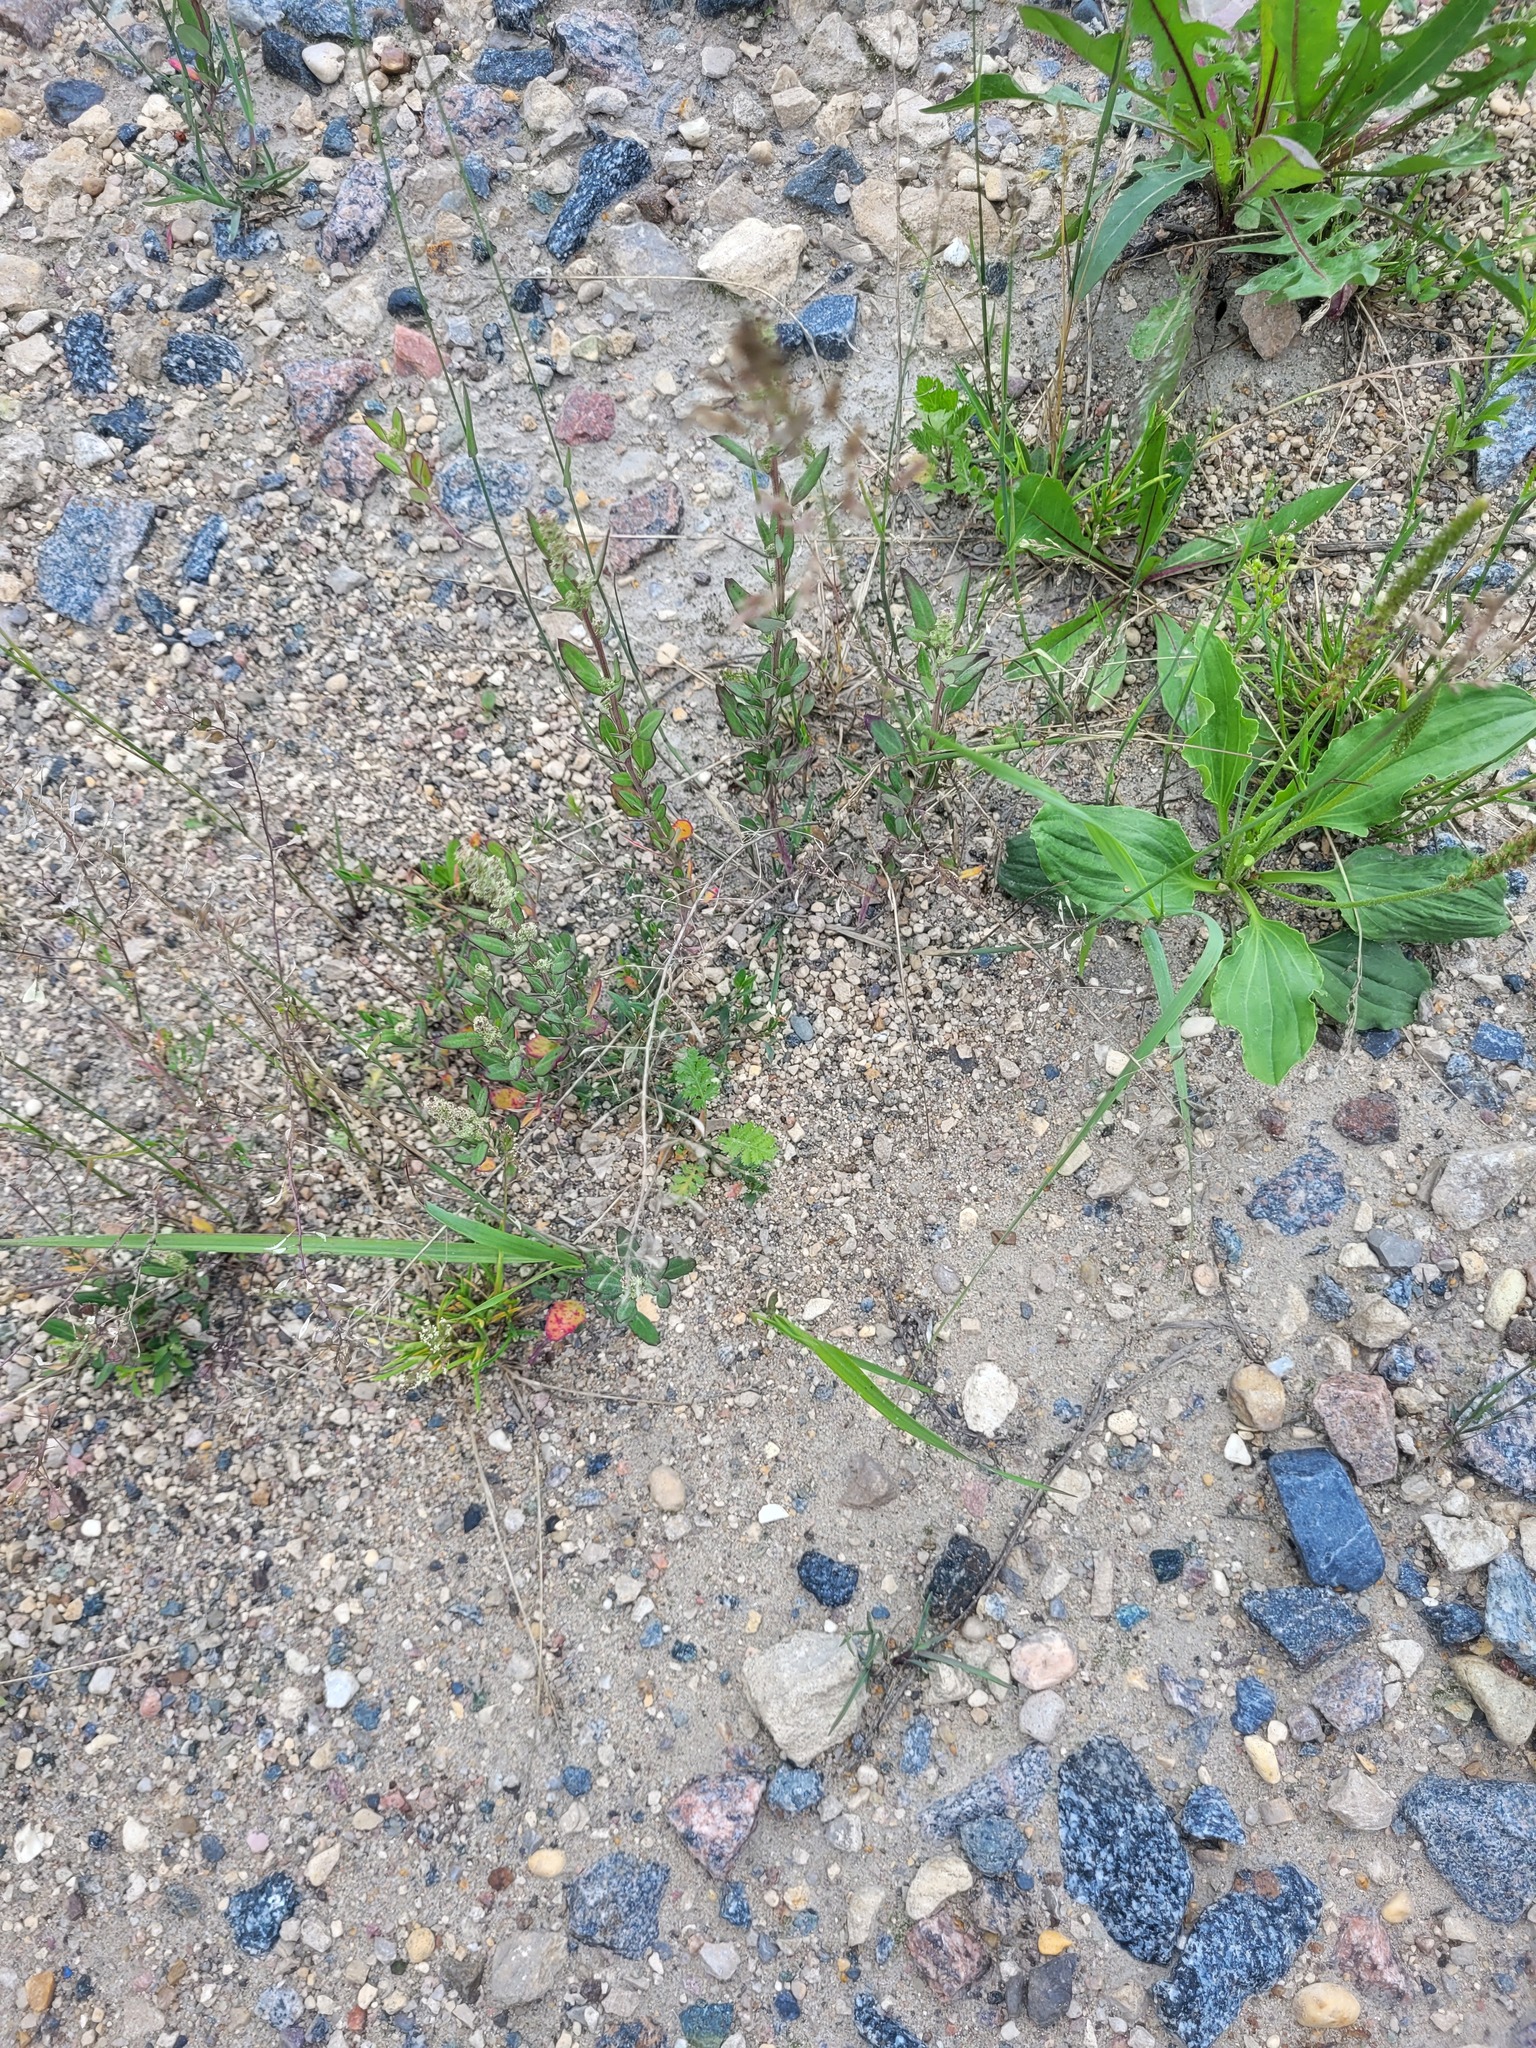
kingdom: Plantae
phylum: Tracheophyta
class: Magnoliopsida
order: Brassicales
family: Brassicaceae
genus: Capsella
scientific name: Capsella bursa-pastoris
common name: Shepherd's purse
